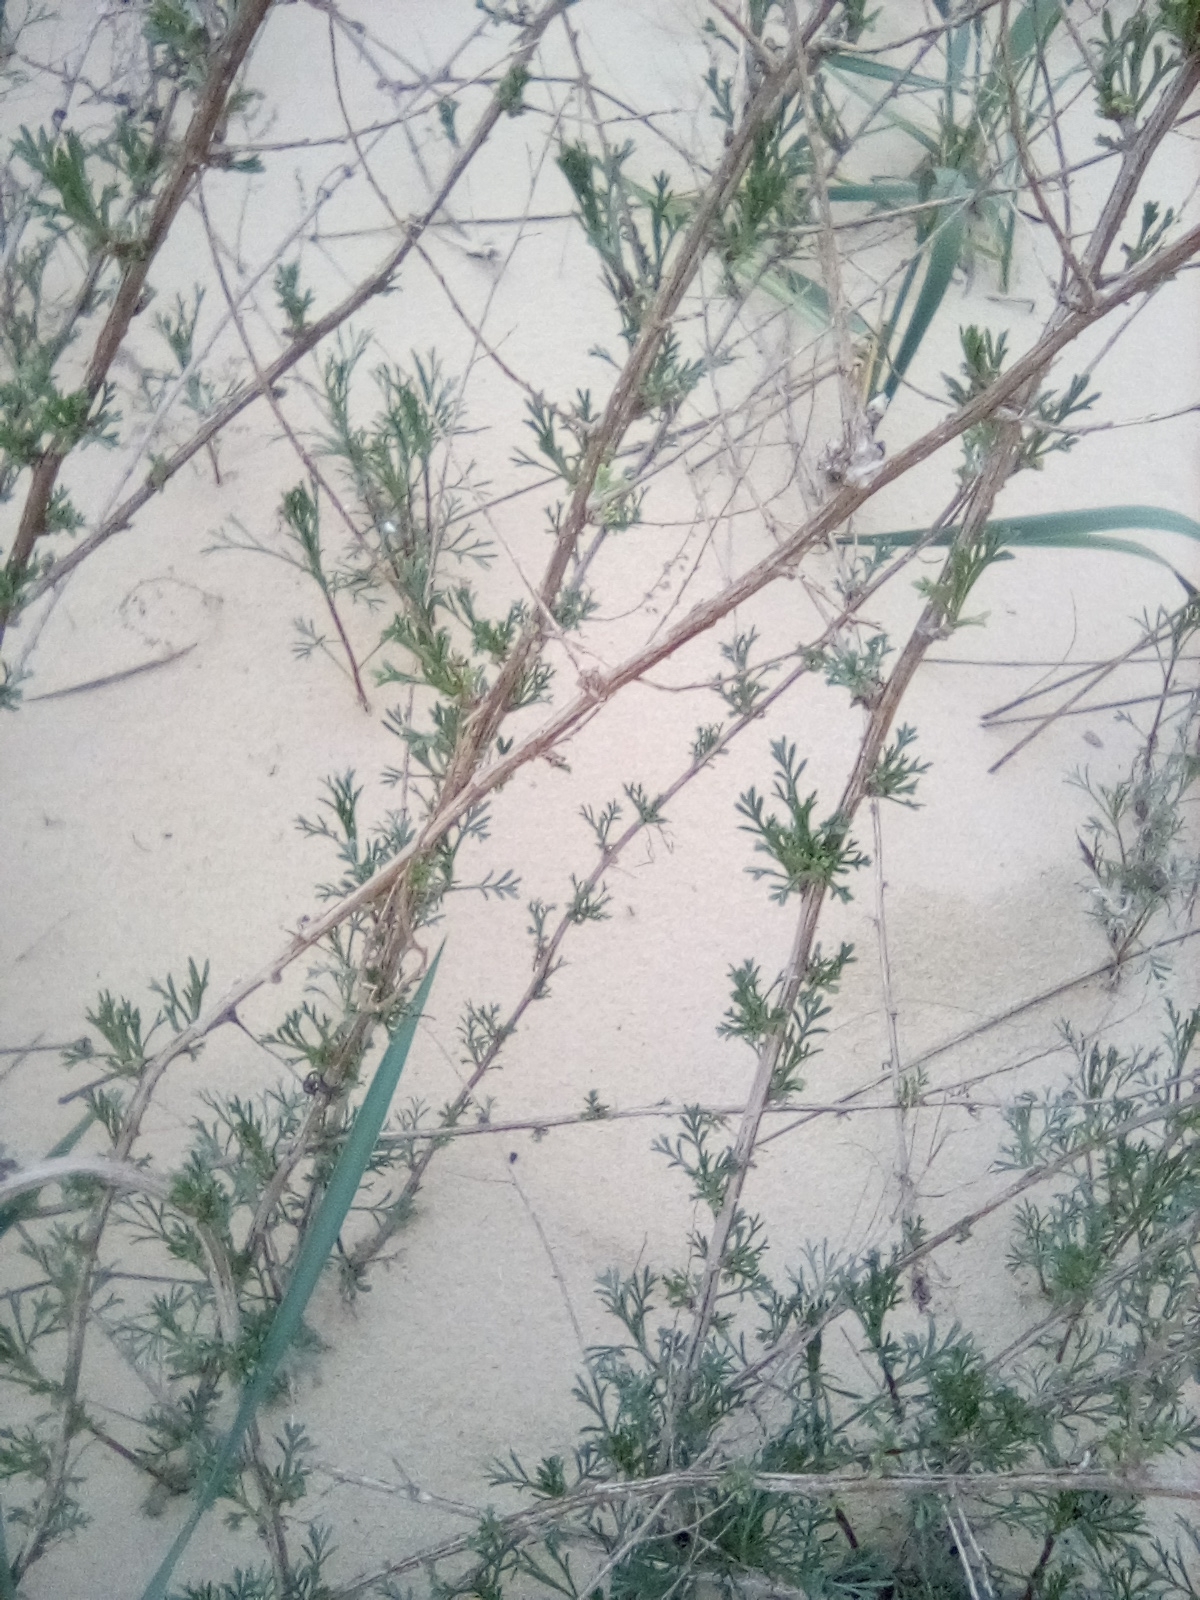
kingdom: Plantae
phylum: Tracheophyta
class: Magnoliopsida
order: Asterales
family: Asteraceae
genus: Artemisia
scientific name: Artemisia arenaria
